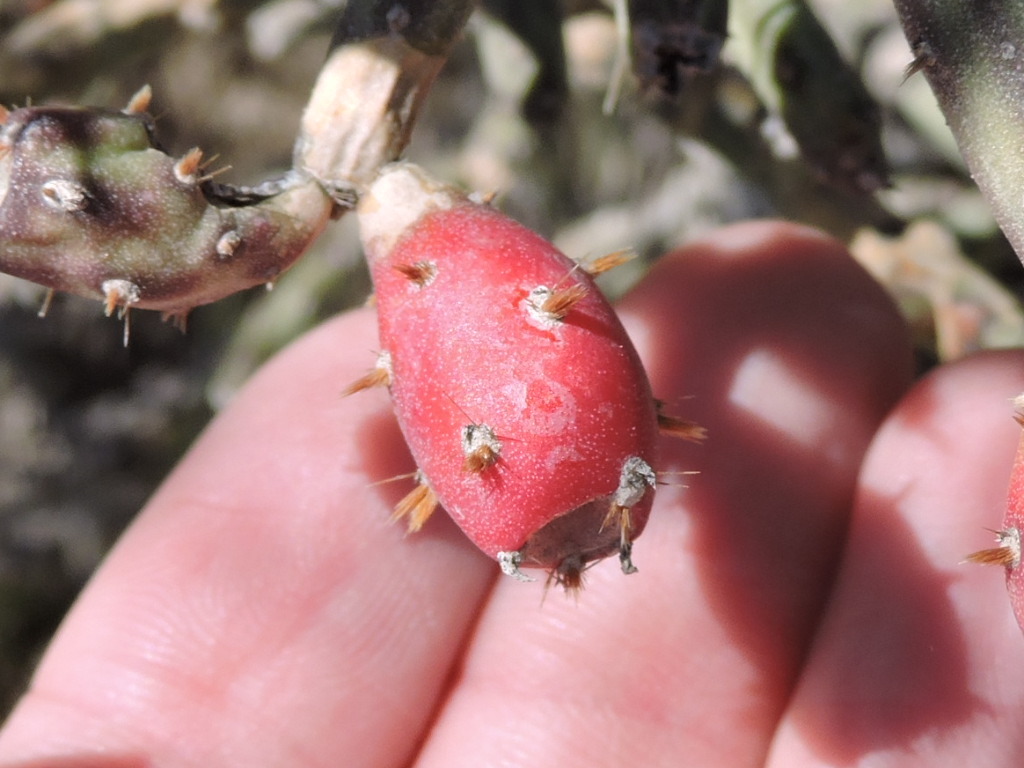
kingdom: Plantae
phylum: Tracheophyta
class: Magnoliopsida
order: Caryophyllales
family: Cactaceae
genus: Cylindropuntia
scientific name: Cylindropuntia leptocaulis
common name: Christmas cactus
